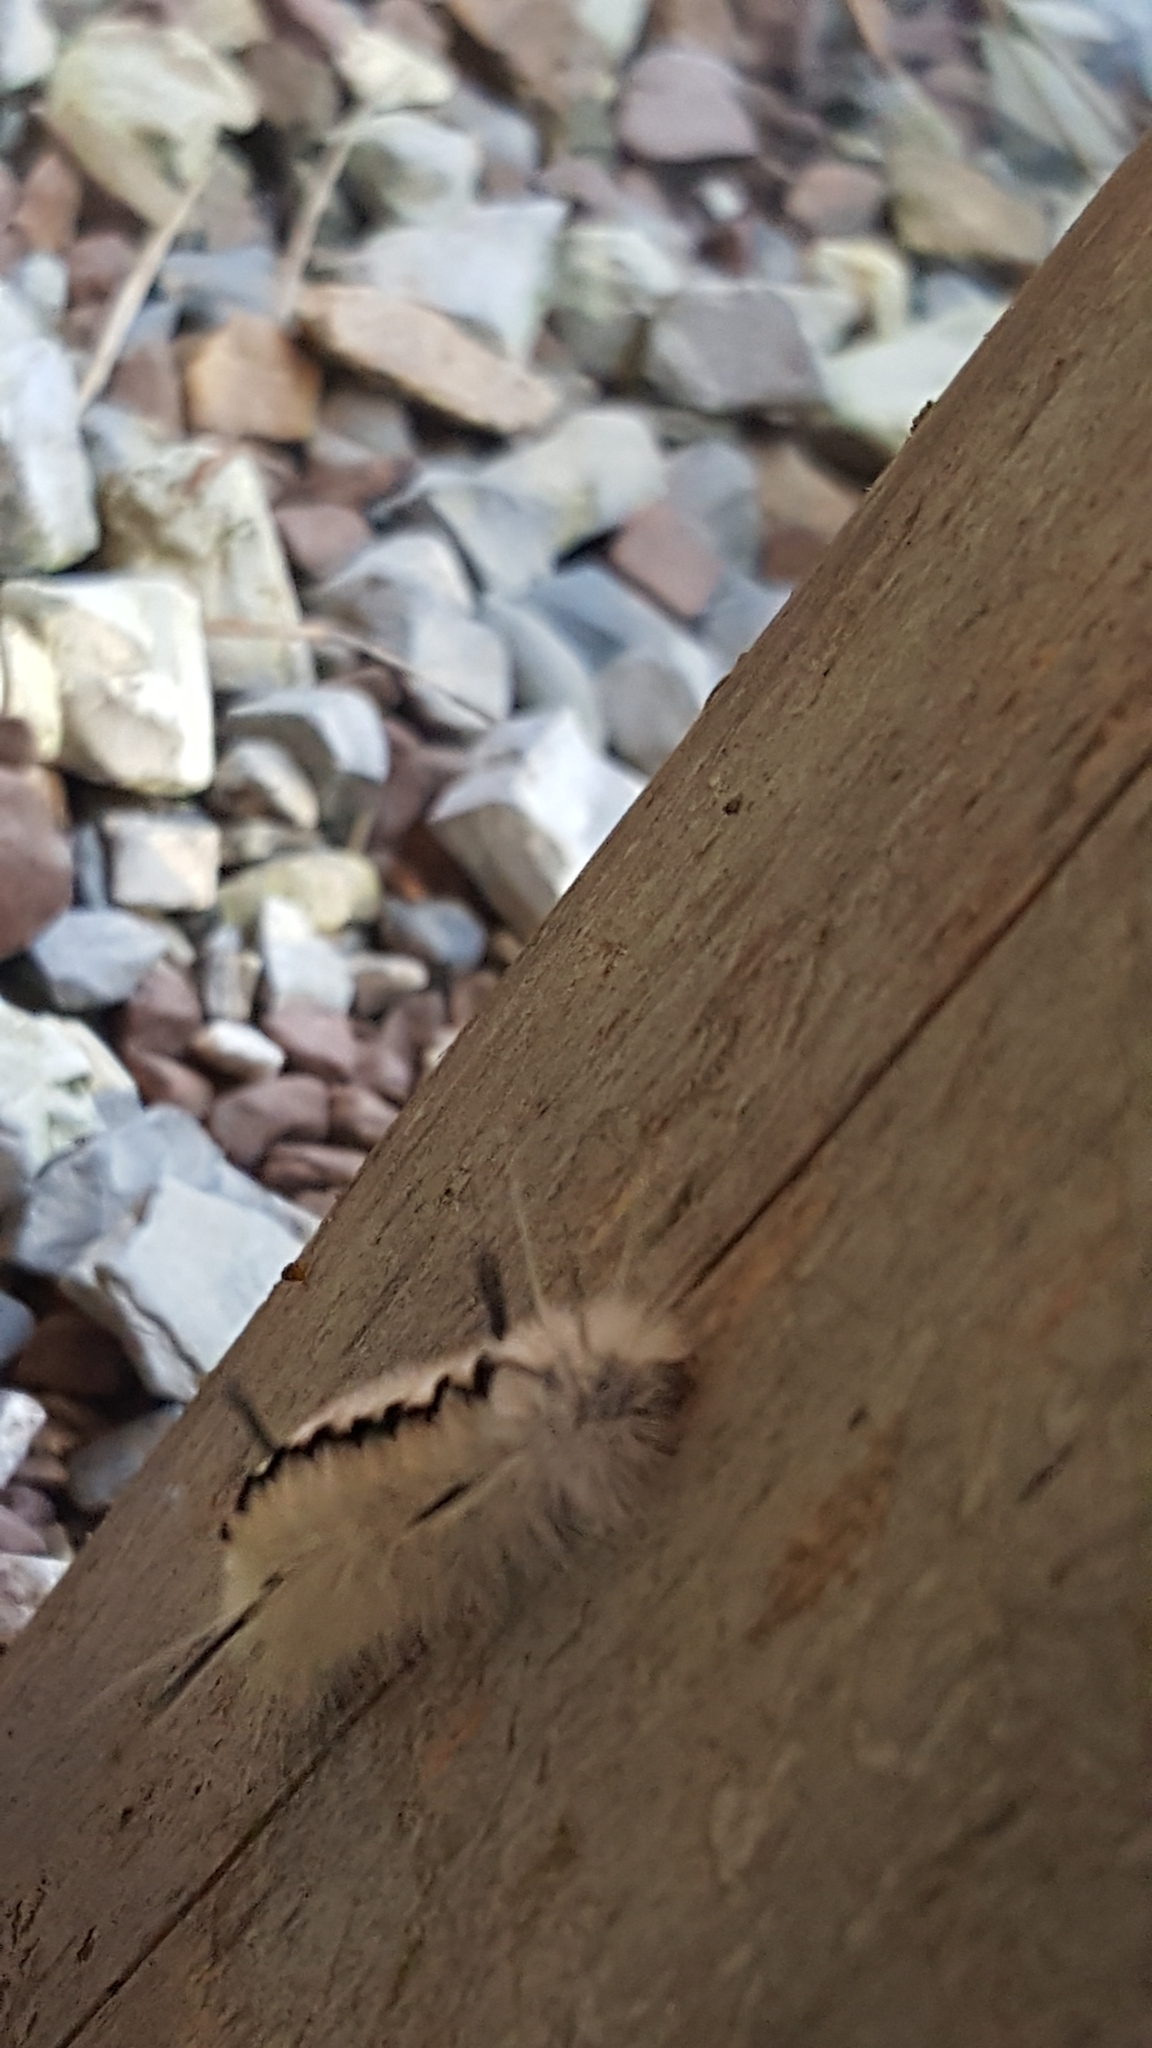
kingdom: Animalia
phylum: Arthropoda
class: Insecta
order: Lepidoptera
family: Erebidae
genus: Lophocampa
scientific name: Lophocampa caryae
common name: Hickory tussock moth
